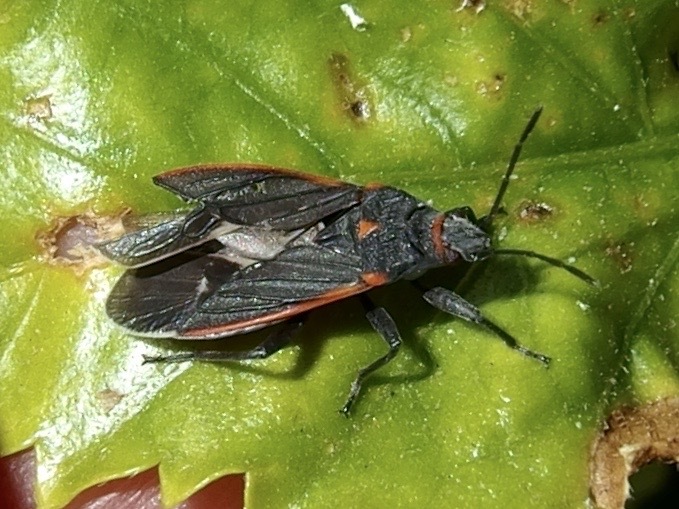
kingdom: Animalia
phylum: Arthropoda
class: Insecta
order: Hemiptera
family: Lygaeidae
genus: Melacoryphus
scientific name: Melacoryphus lateralis
